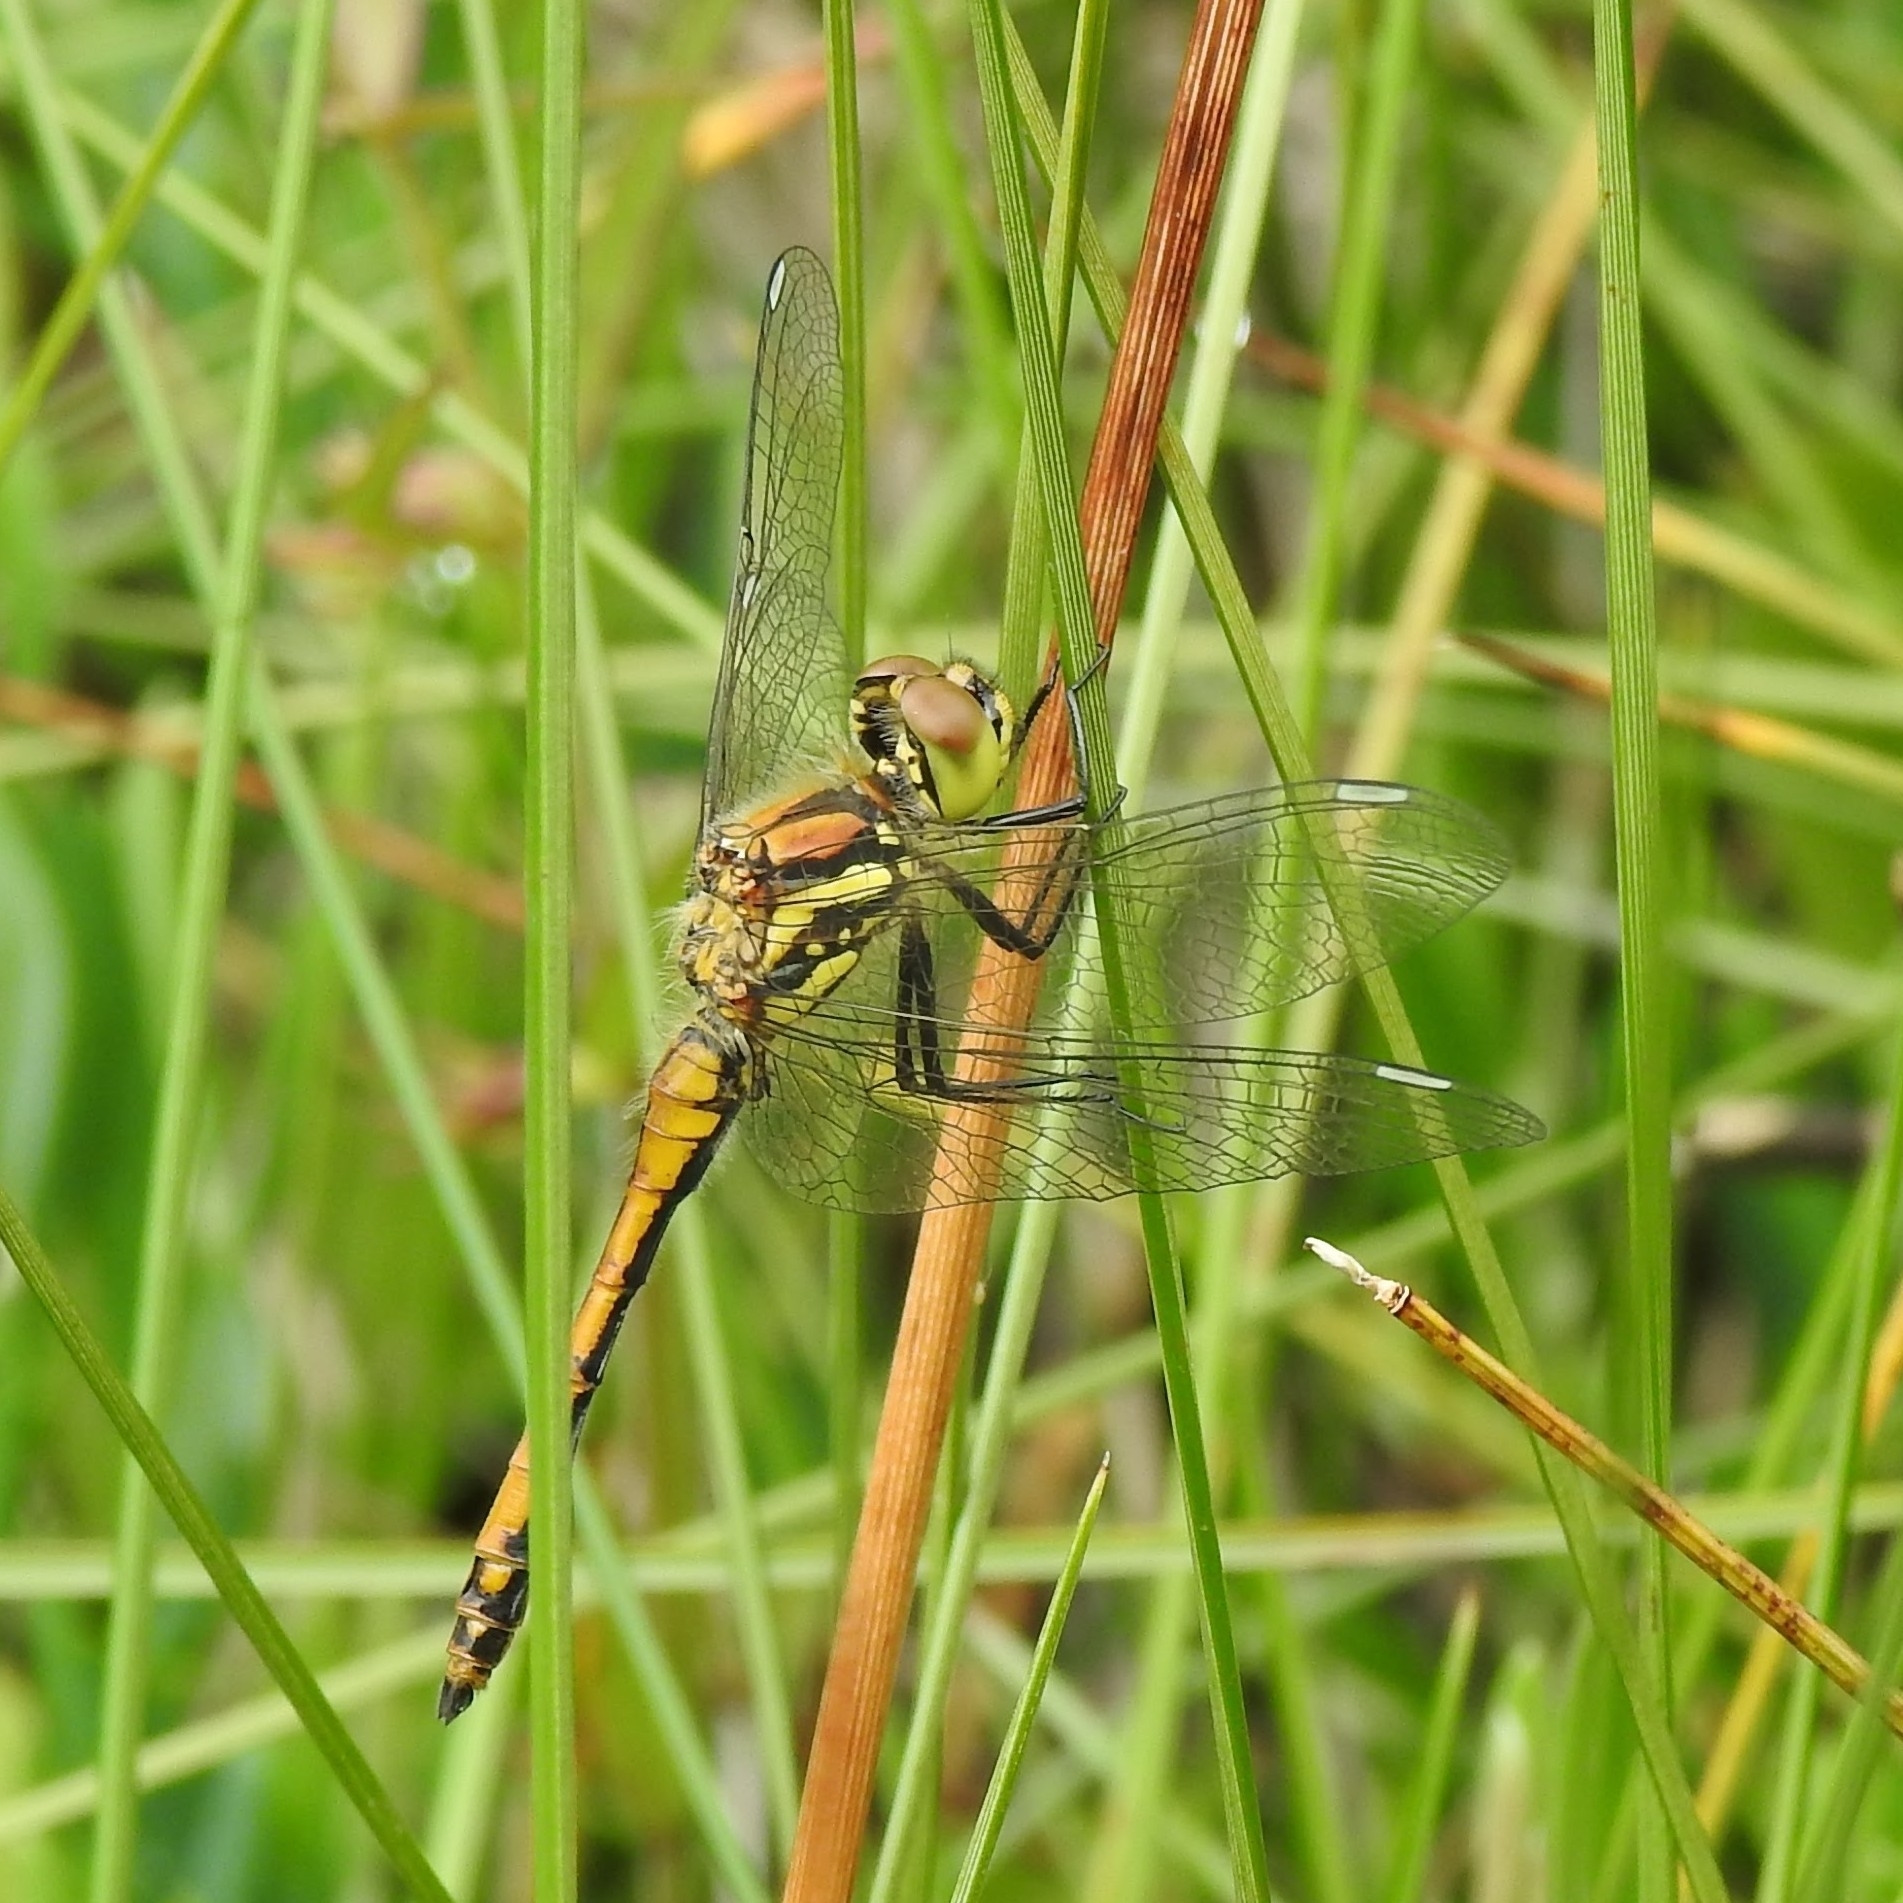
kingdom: Animalia
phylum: Arthropoda
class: Insecta
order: Odonata
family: Libellulidae
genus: Sympetrum
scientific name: Sympetrum danae
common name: Black darter
